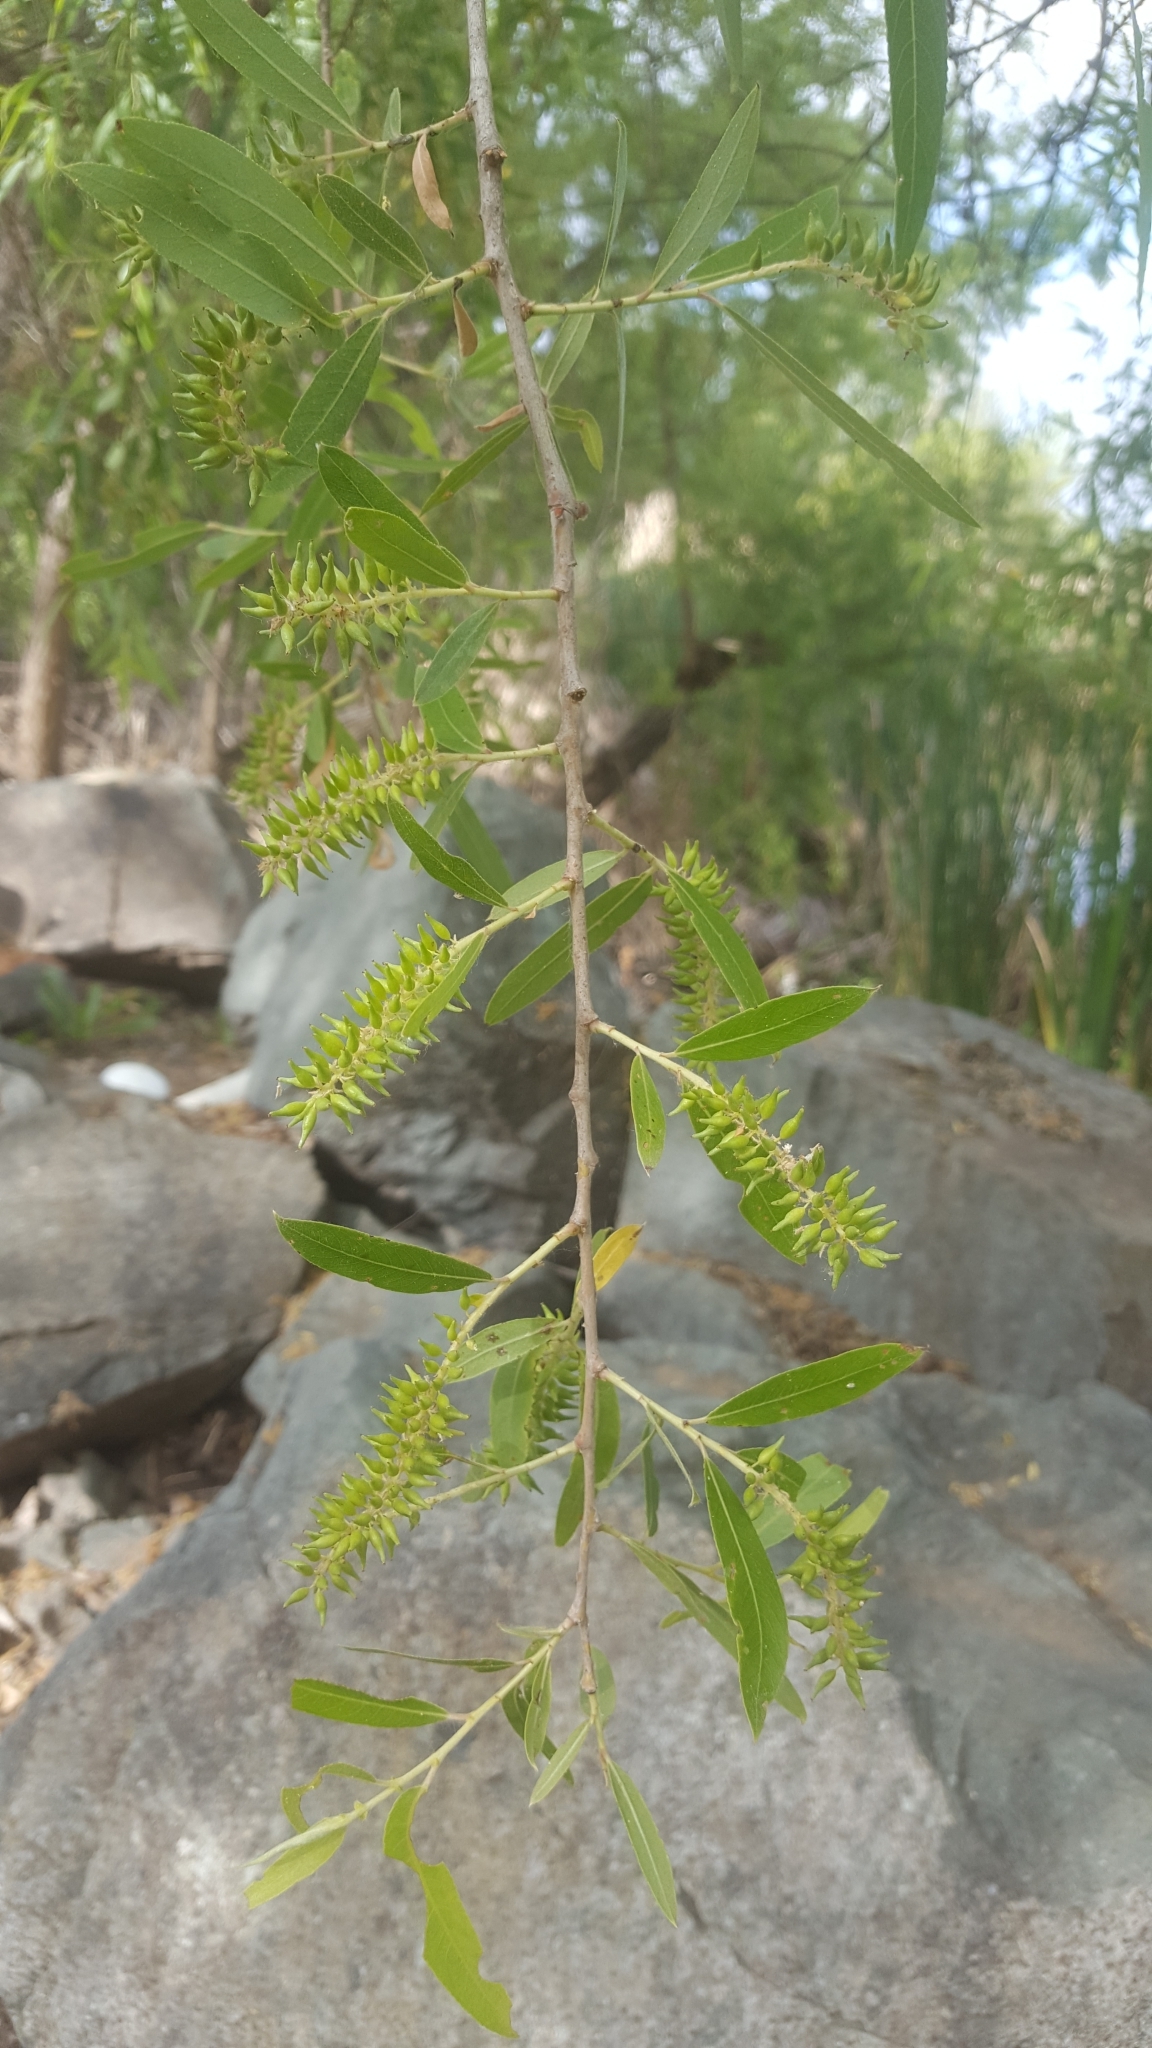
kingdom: Plantae
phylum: Tracheophyta
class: Magnoliopsida
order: Malpighiales
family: Salicaceae
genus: Salix
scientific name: Salix gooddingii
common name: Goodding's willow
